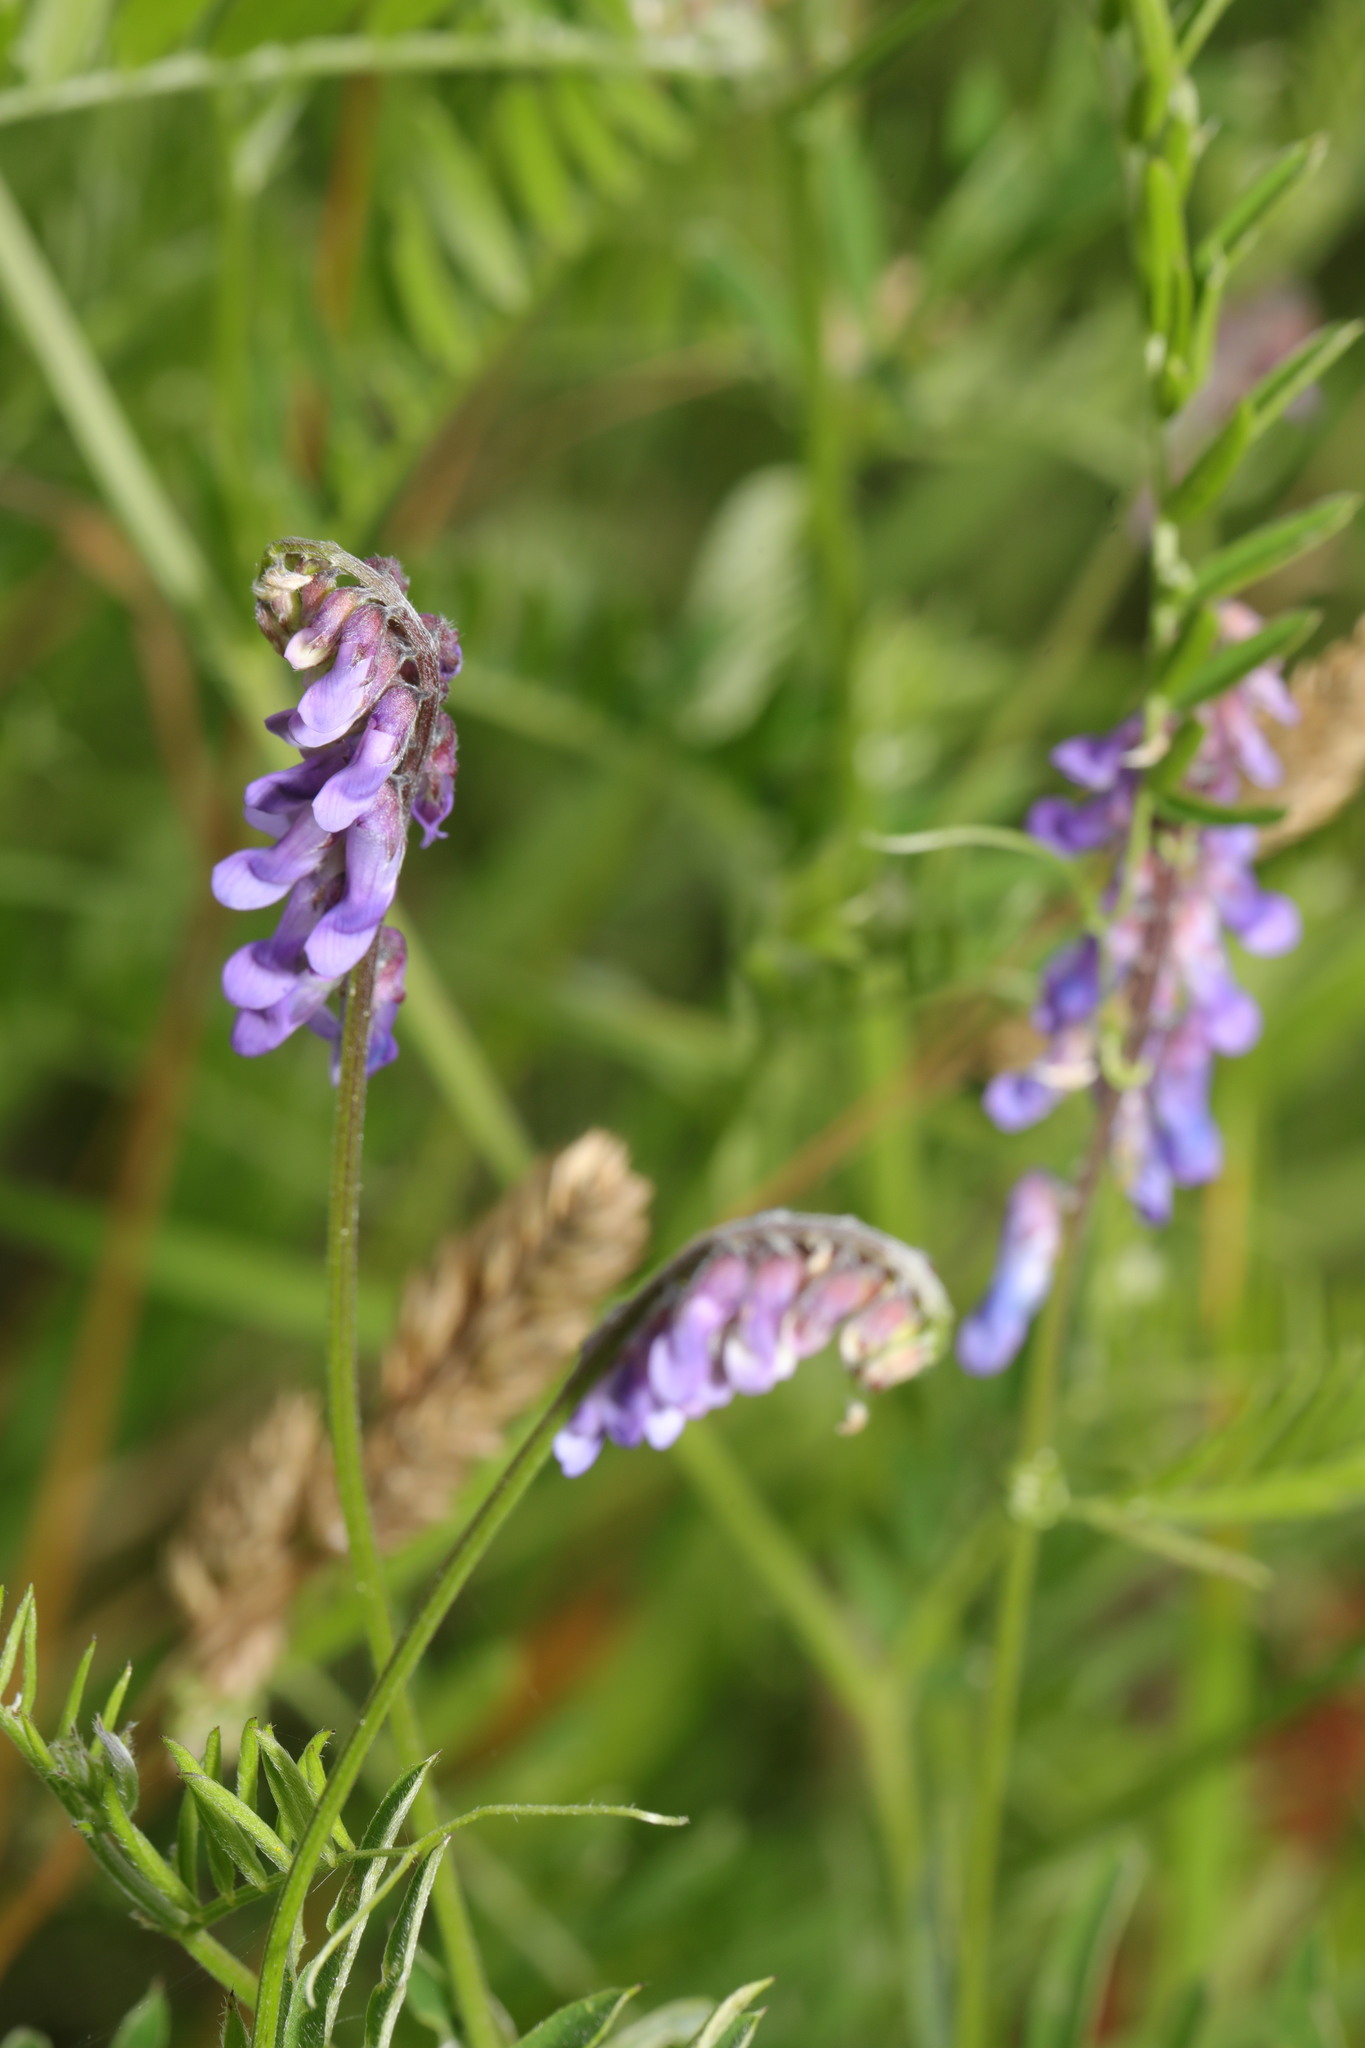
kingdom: Plantae
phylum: Tracheophyta
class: Magnoliopsida
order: Fabales
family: Fabaceae
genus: Vicia
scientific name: Vicia cracca
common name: Bird vetch
